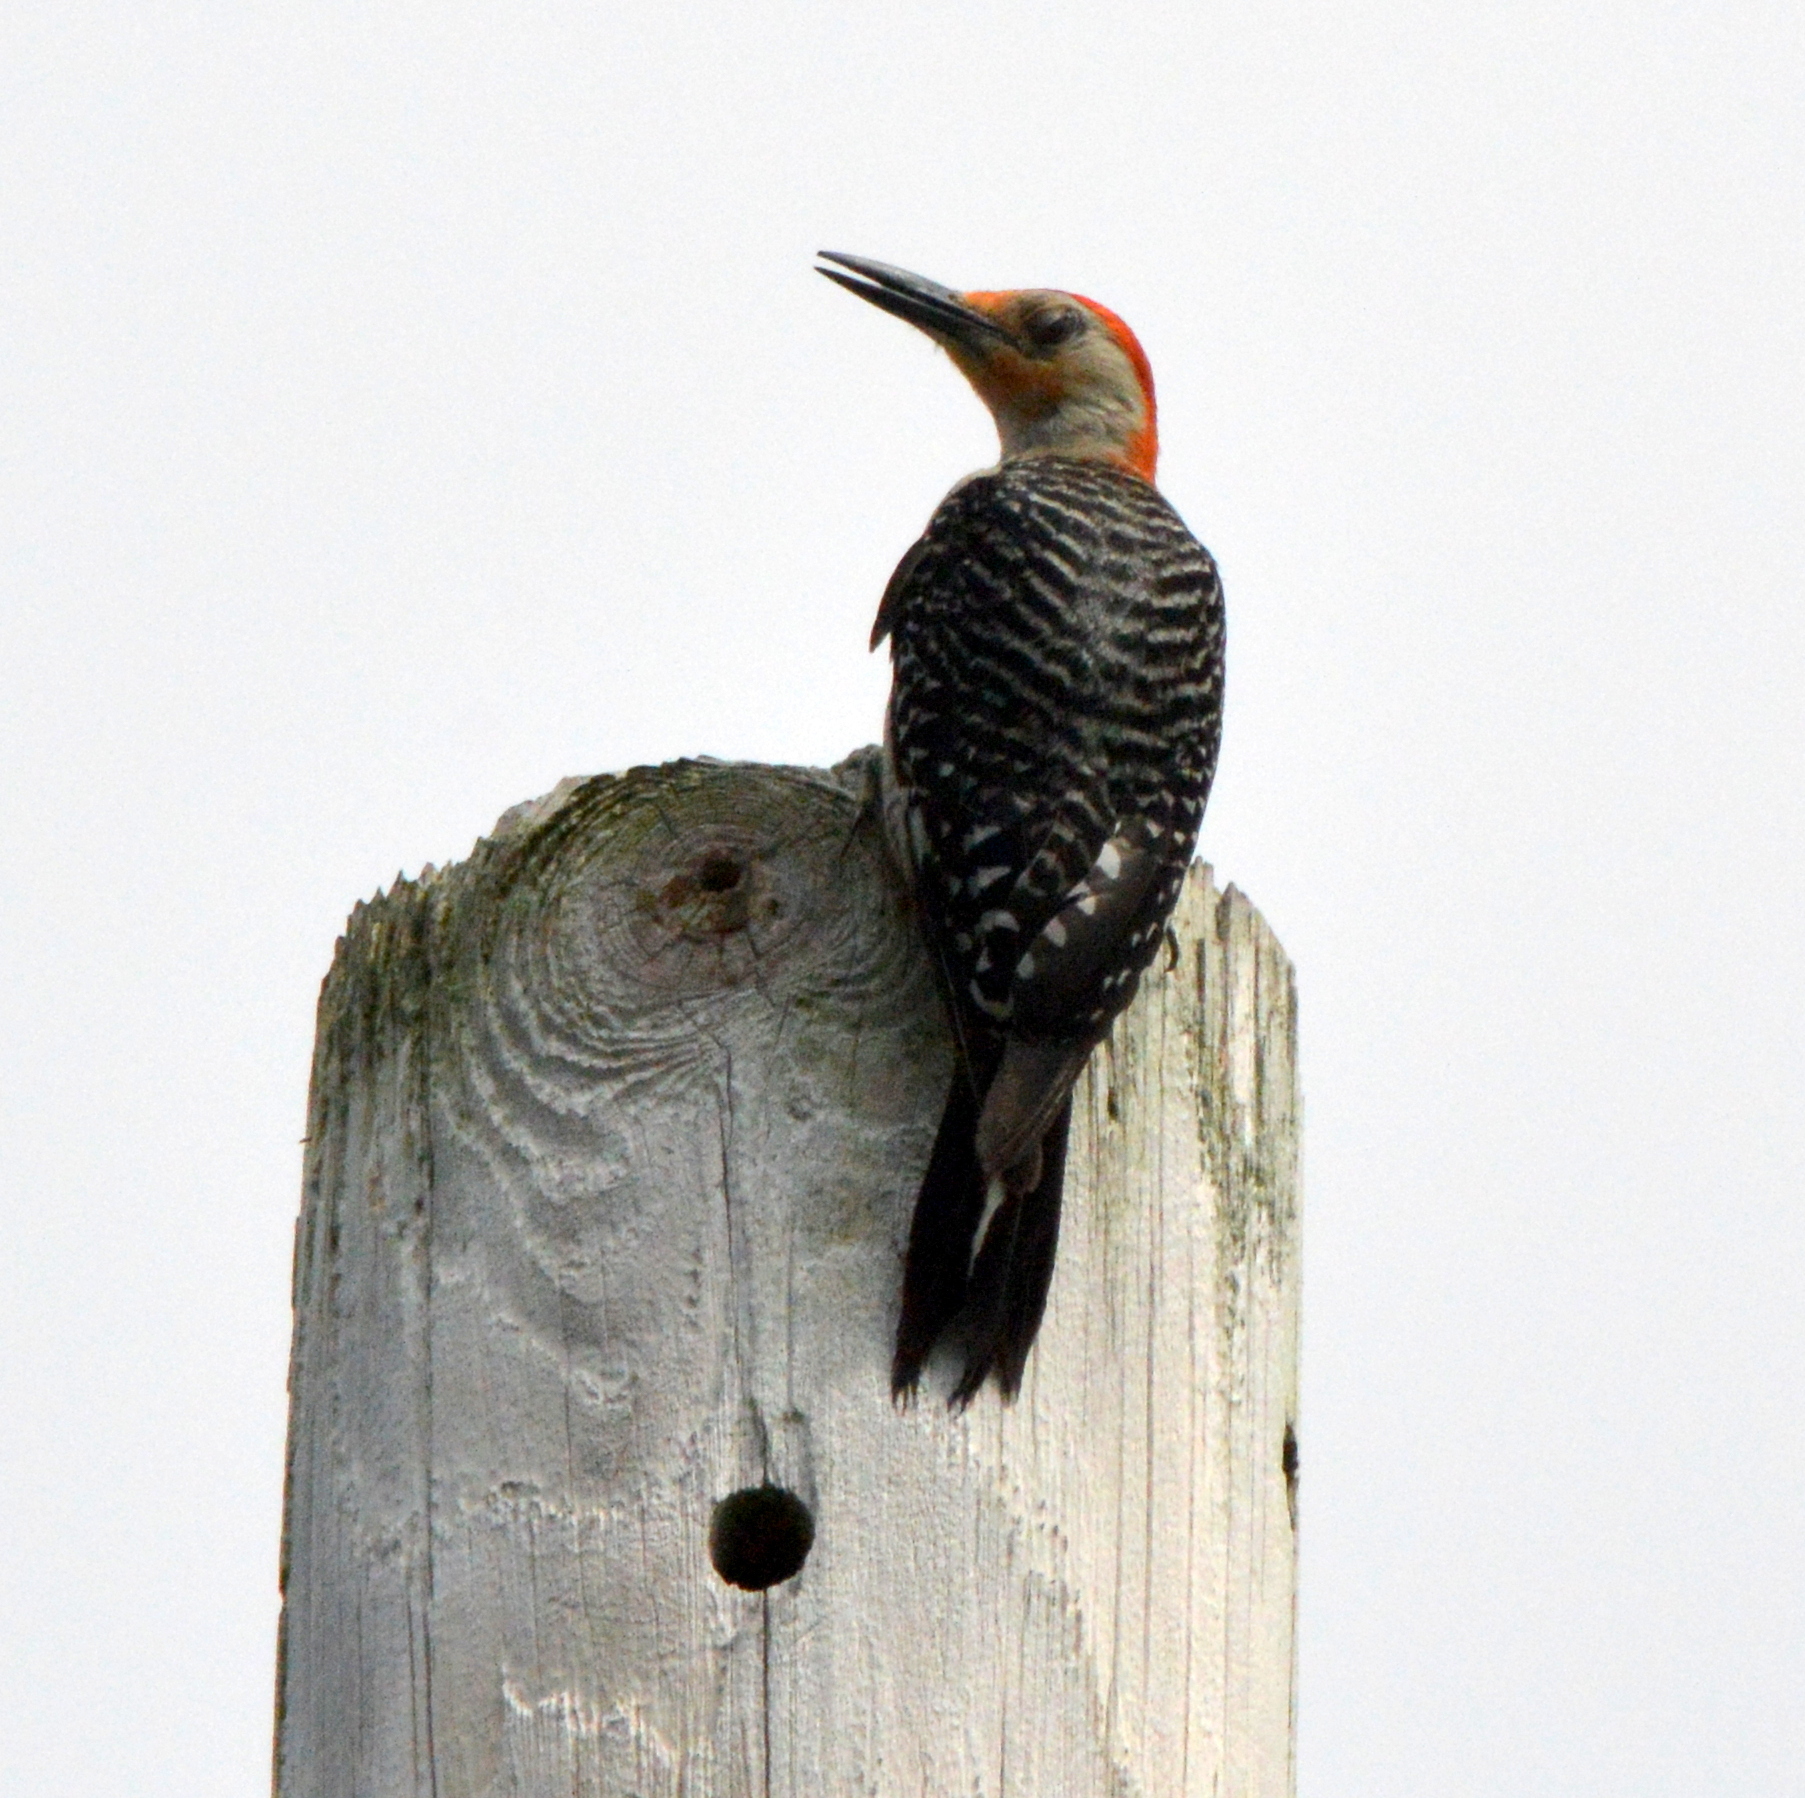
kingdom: Animalia
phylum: Chordata
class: Aves
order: Piciformes
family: Picidae
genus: Melanerpes
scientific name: Melanerpes carolinus
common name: Red-bellied woodpecker
